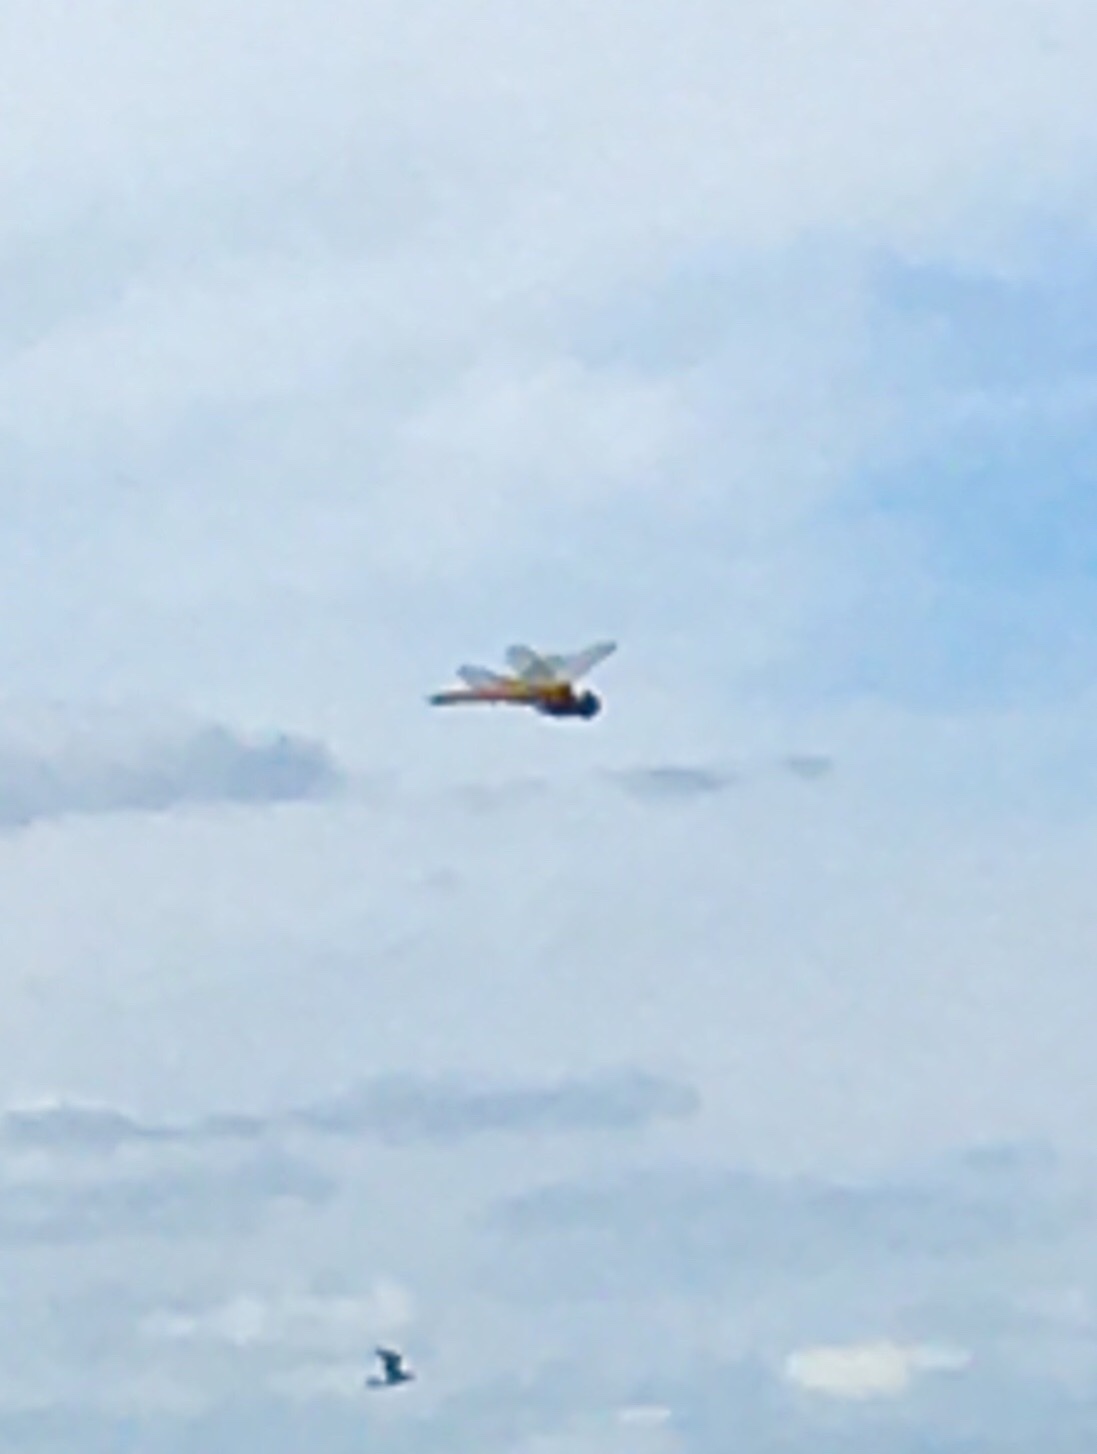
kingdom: Animalia
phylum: Arthropoda
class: Insecta
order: Odonata
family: Libellulidae
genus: Pantala
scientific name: Pantala flavescens
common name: Wandering glider
